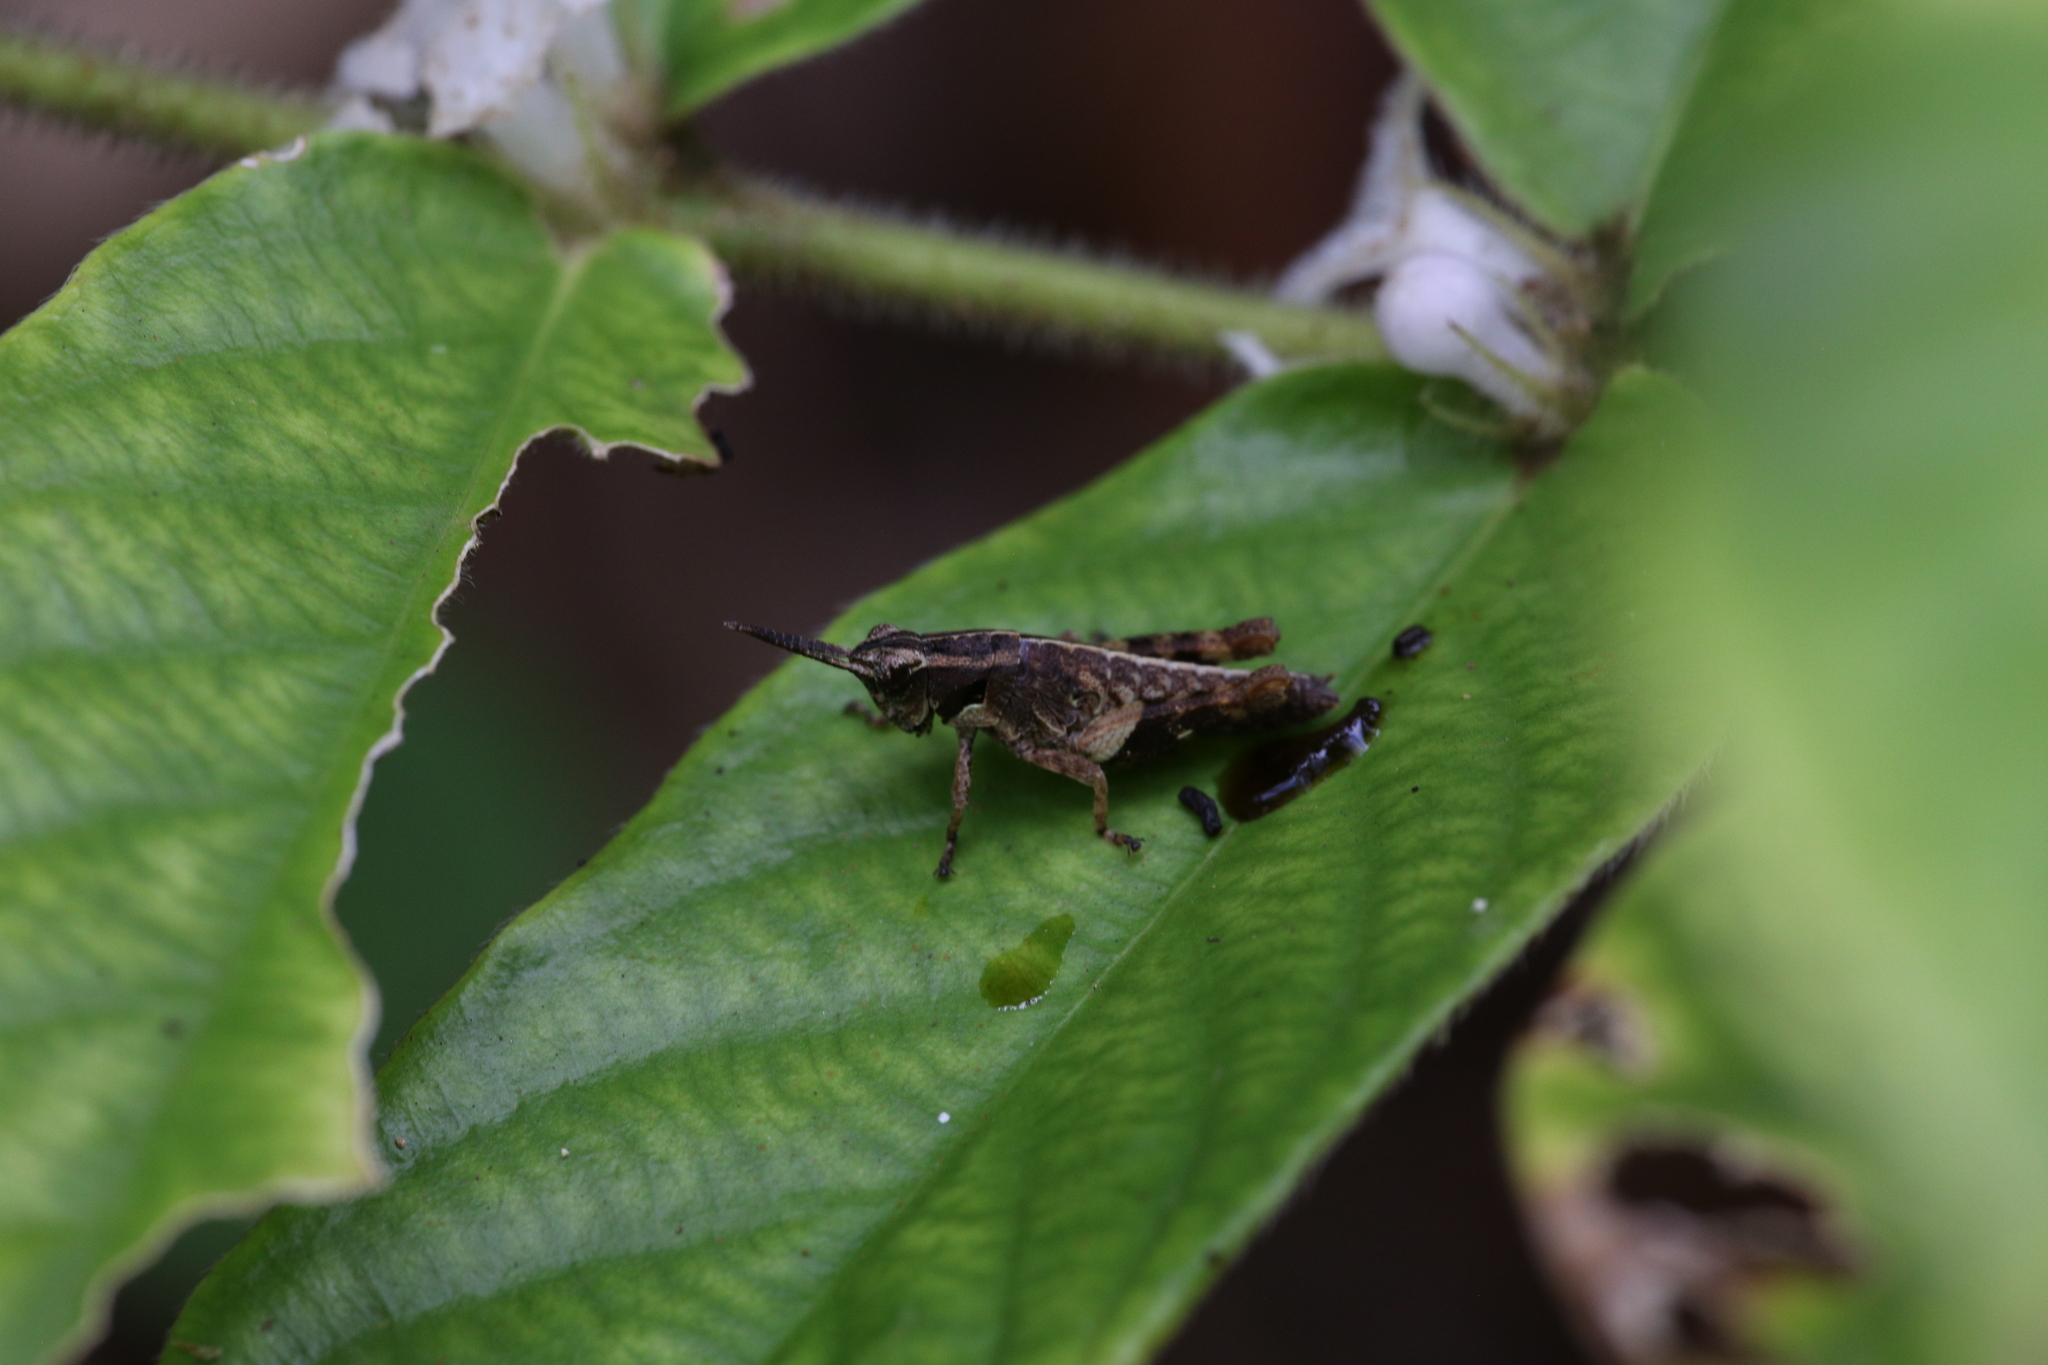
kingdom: Animalia
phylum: Arthropoda
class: Insecta
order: Orthoptera
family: Acrididae
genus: Traulia
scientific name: Traulia ornata
